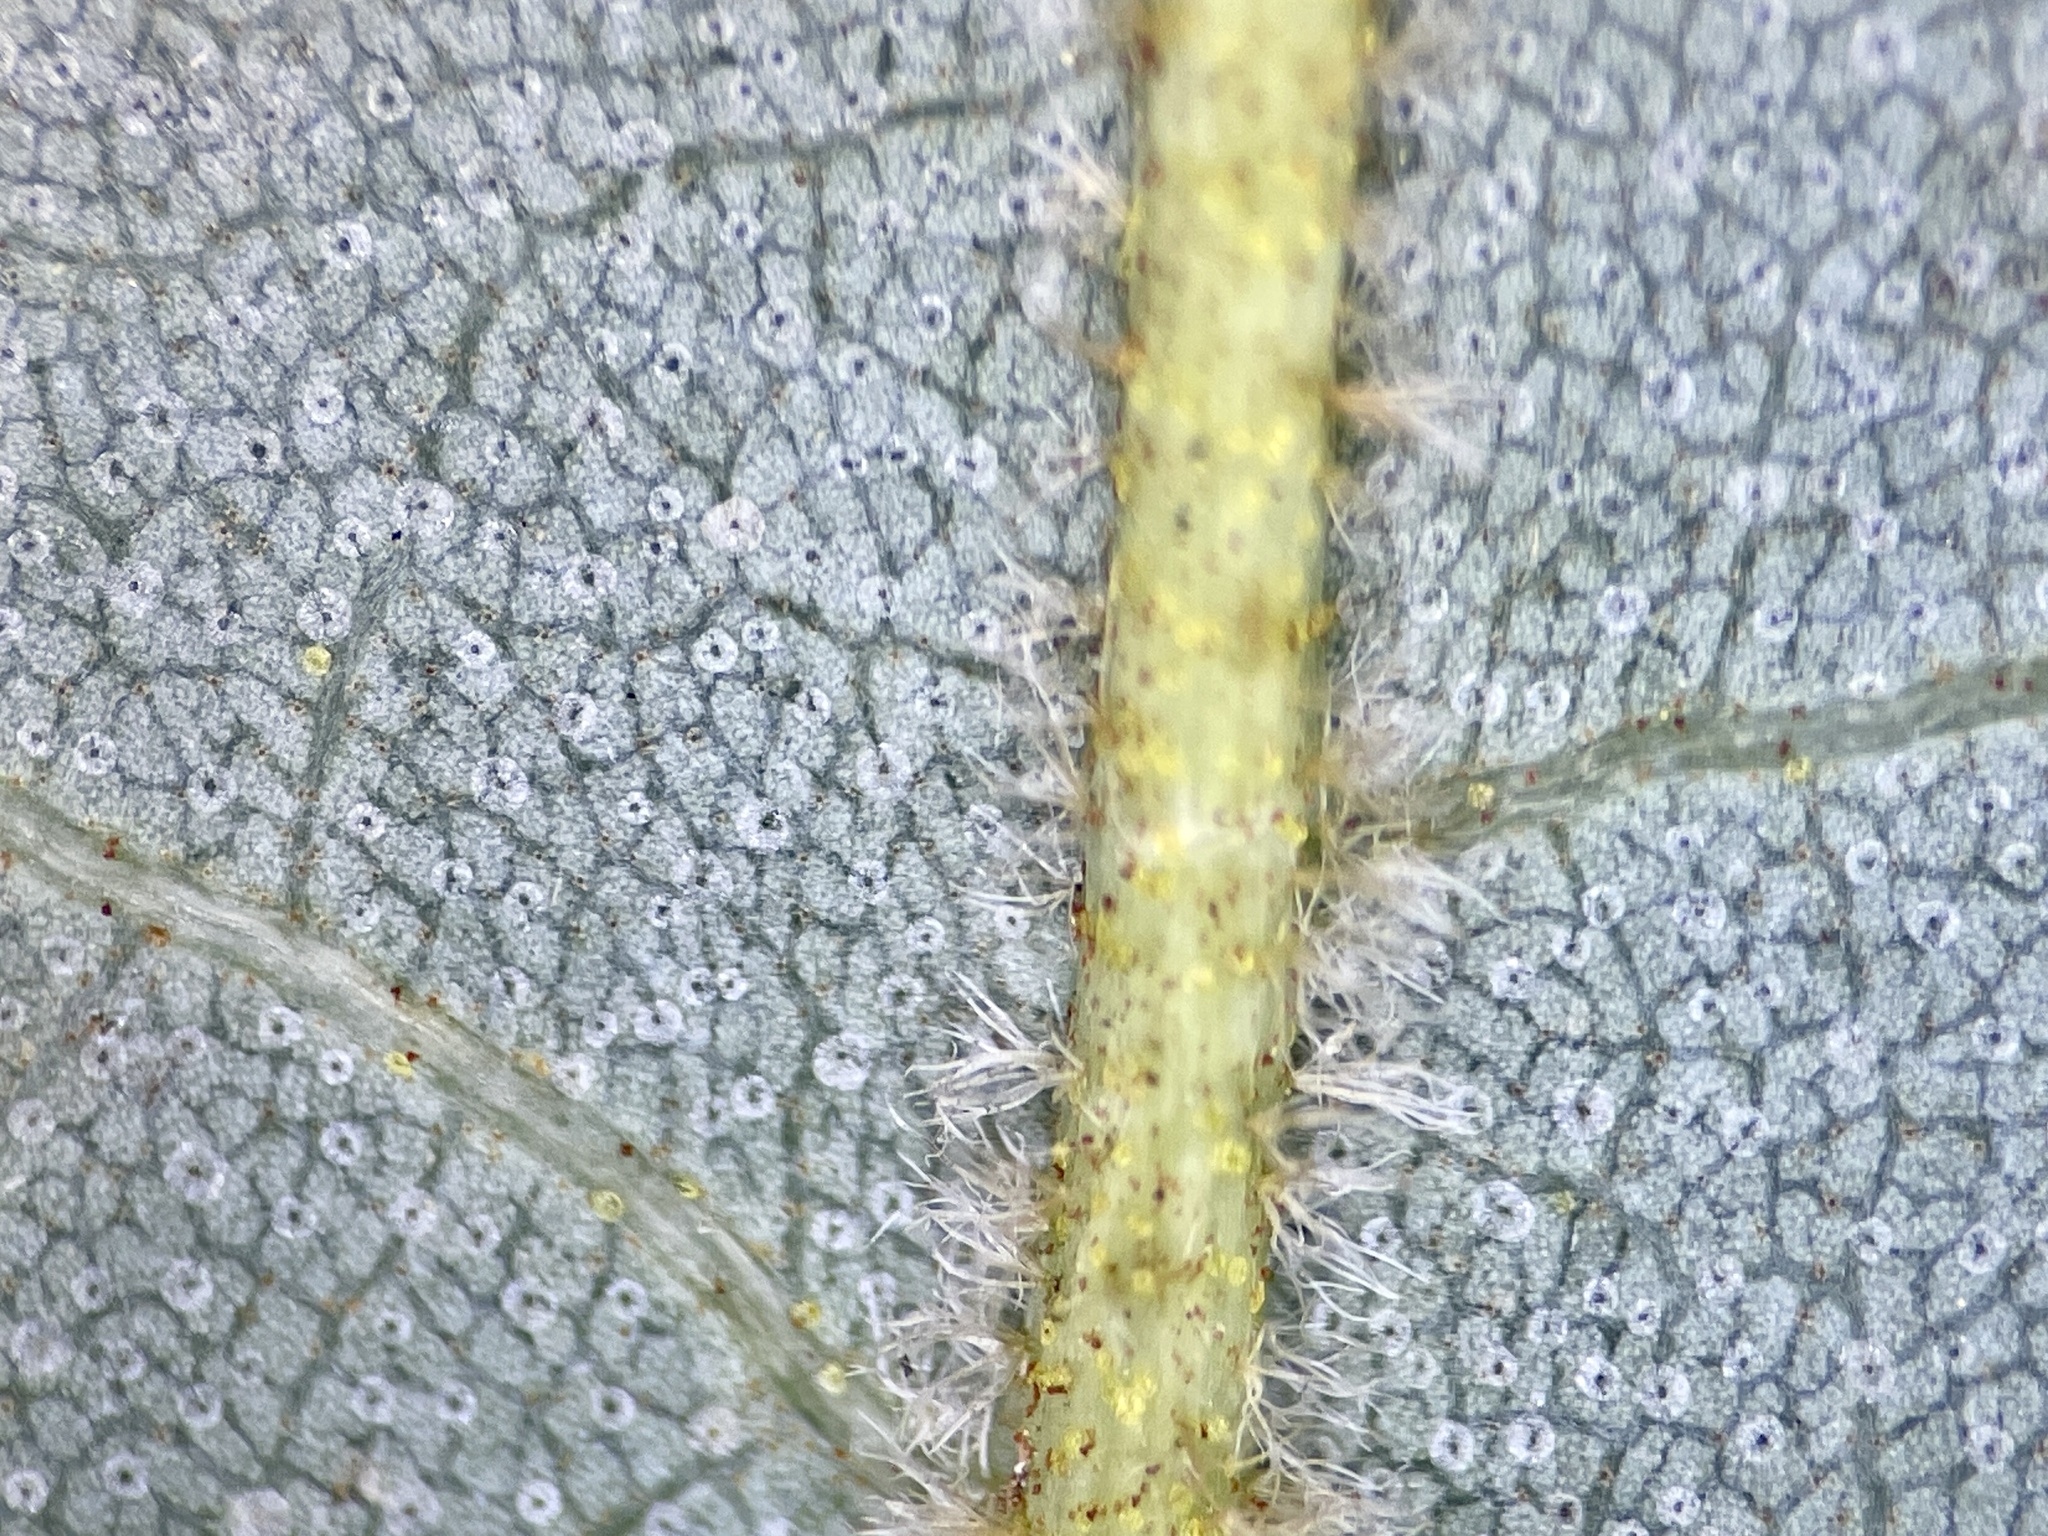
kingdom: Plantae
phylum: Tracheophyta
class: Magnoliopsida
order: Fagales
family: Juglandaceae
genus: Carya
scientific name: Carya pallida
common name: Sand hickory
